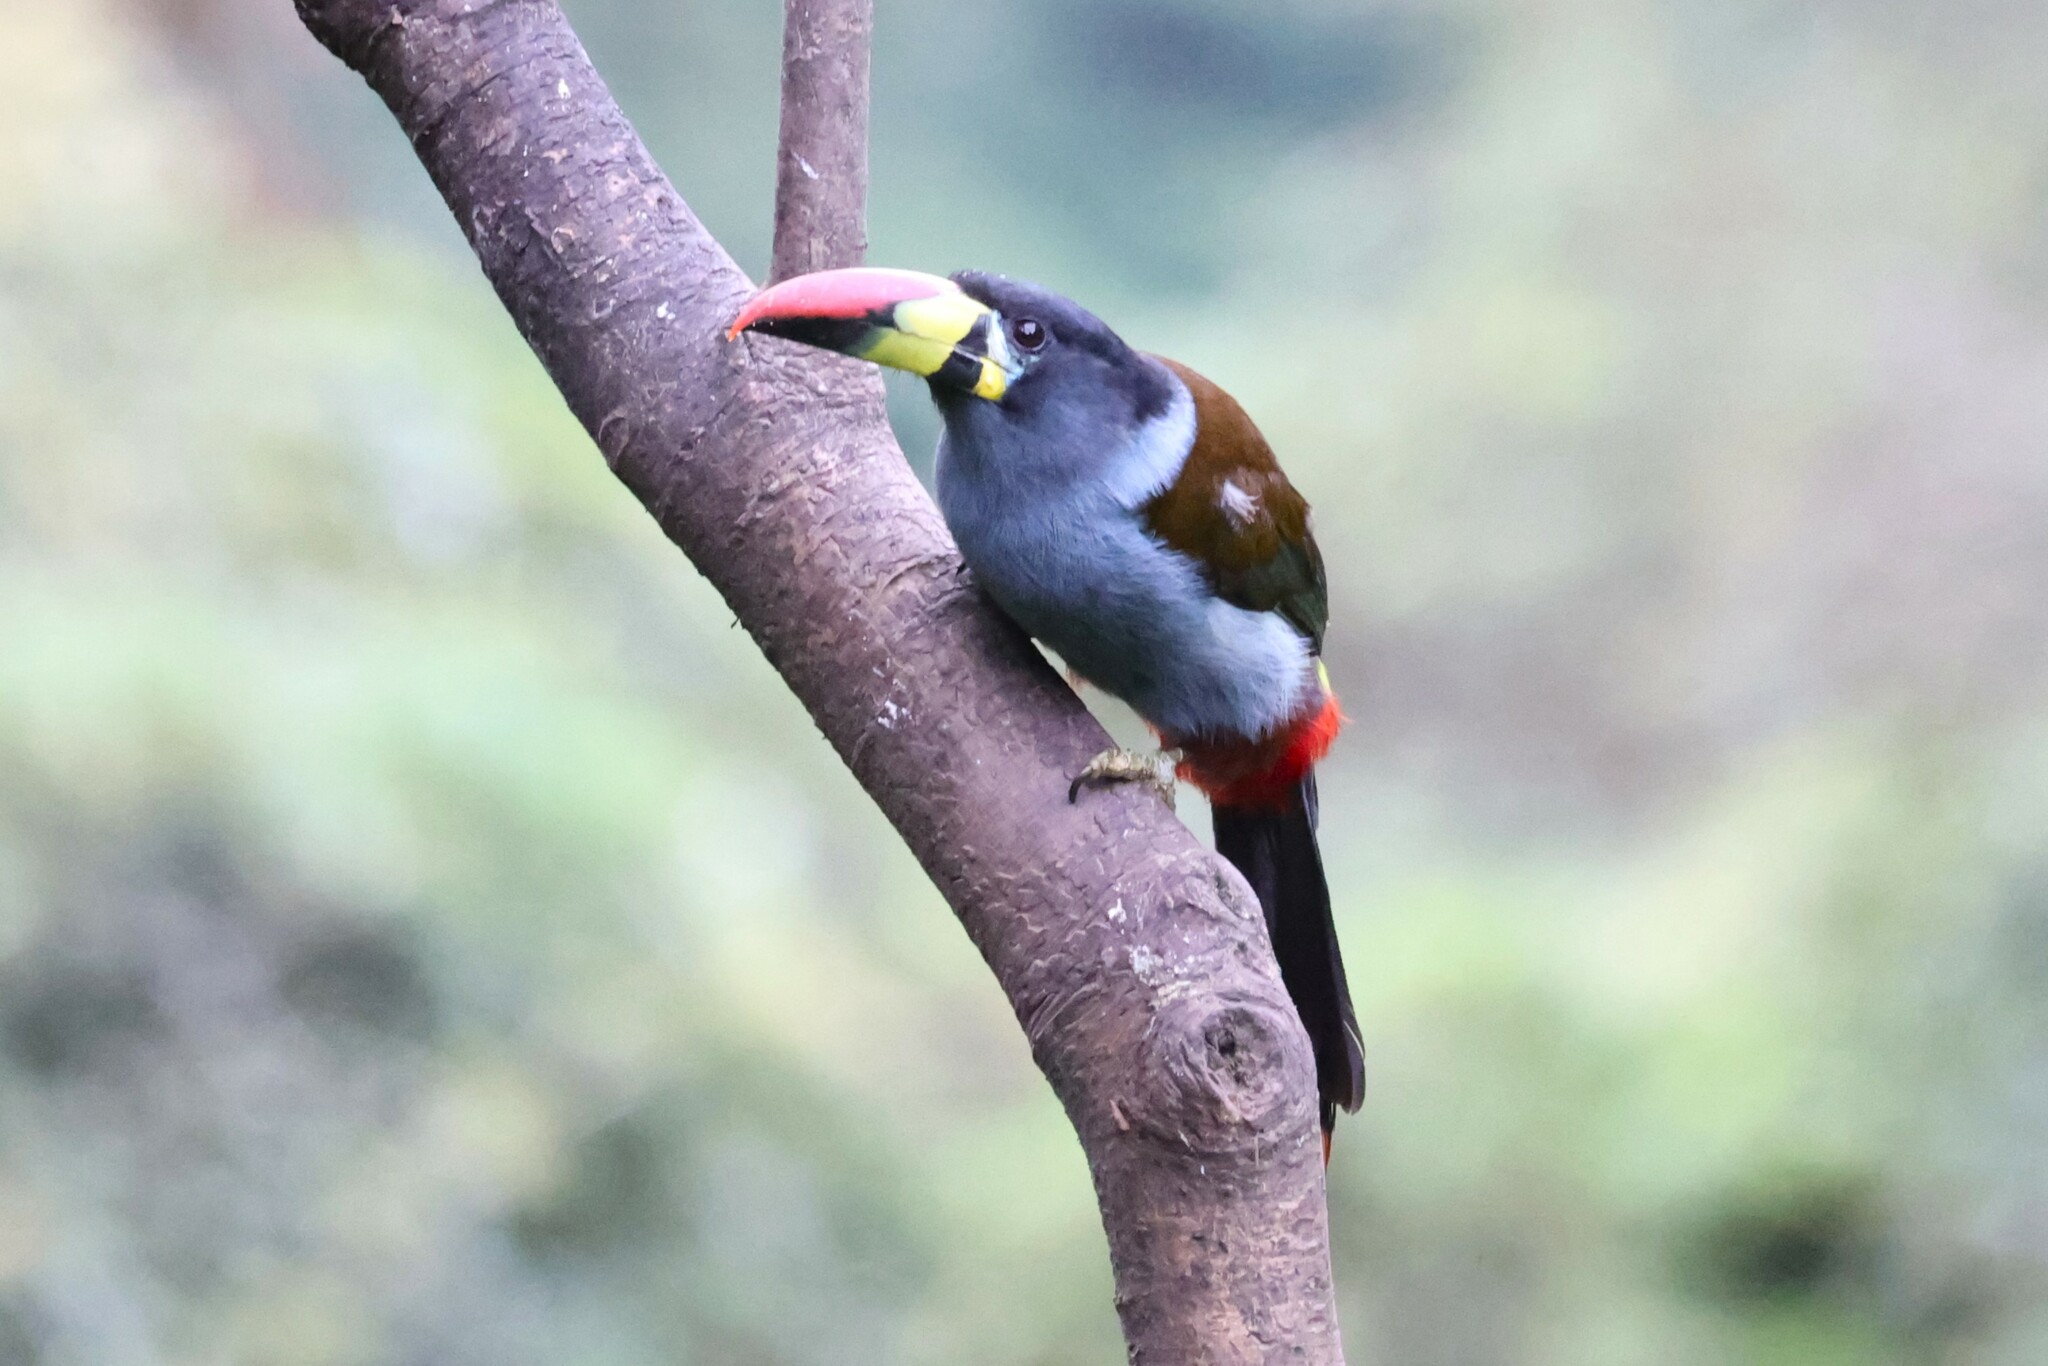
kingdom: Animalia
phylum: Chordata
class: Aves
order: Piciformes
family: Ramphastidae
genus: Andigena
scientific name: Andigena hypoglauca
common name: Grey-breasted mountain toucan
